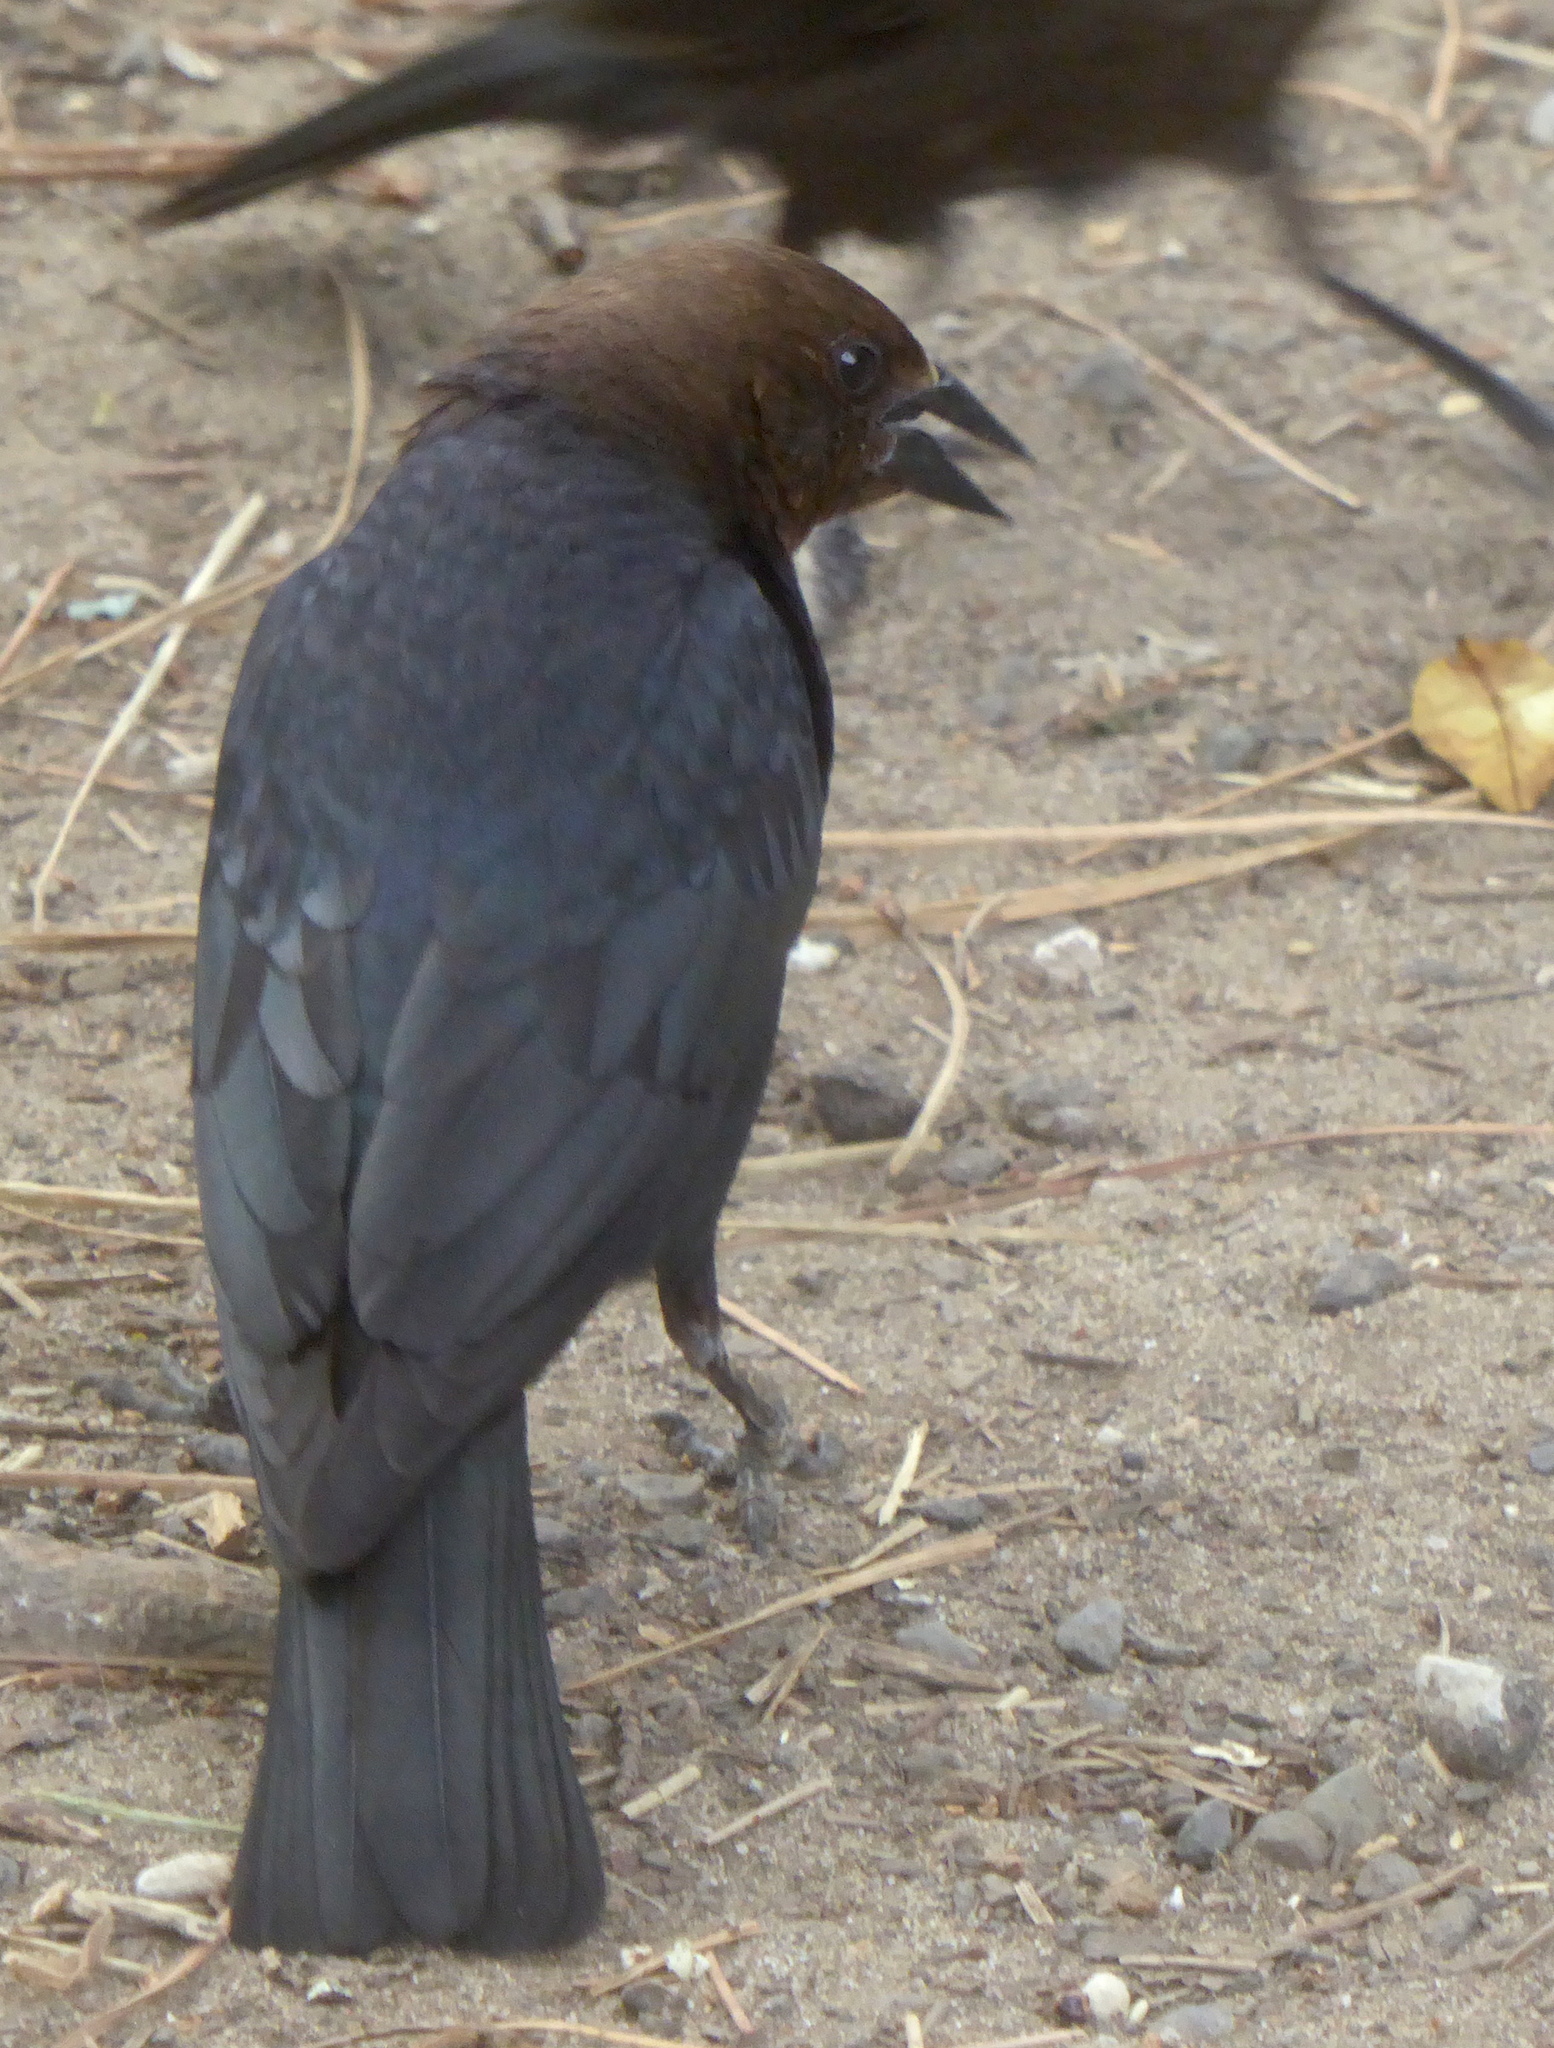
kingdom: Animalia
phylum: Chordata
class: Aves
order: Passeriformes
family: Icteridae
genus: Molothrus
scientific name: Molothrus ater
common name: Brown-headed cowbird
